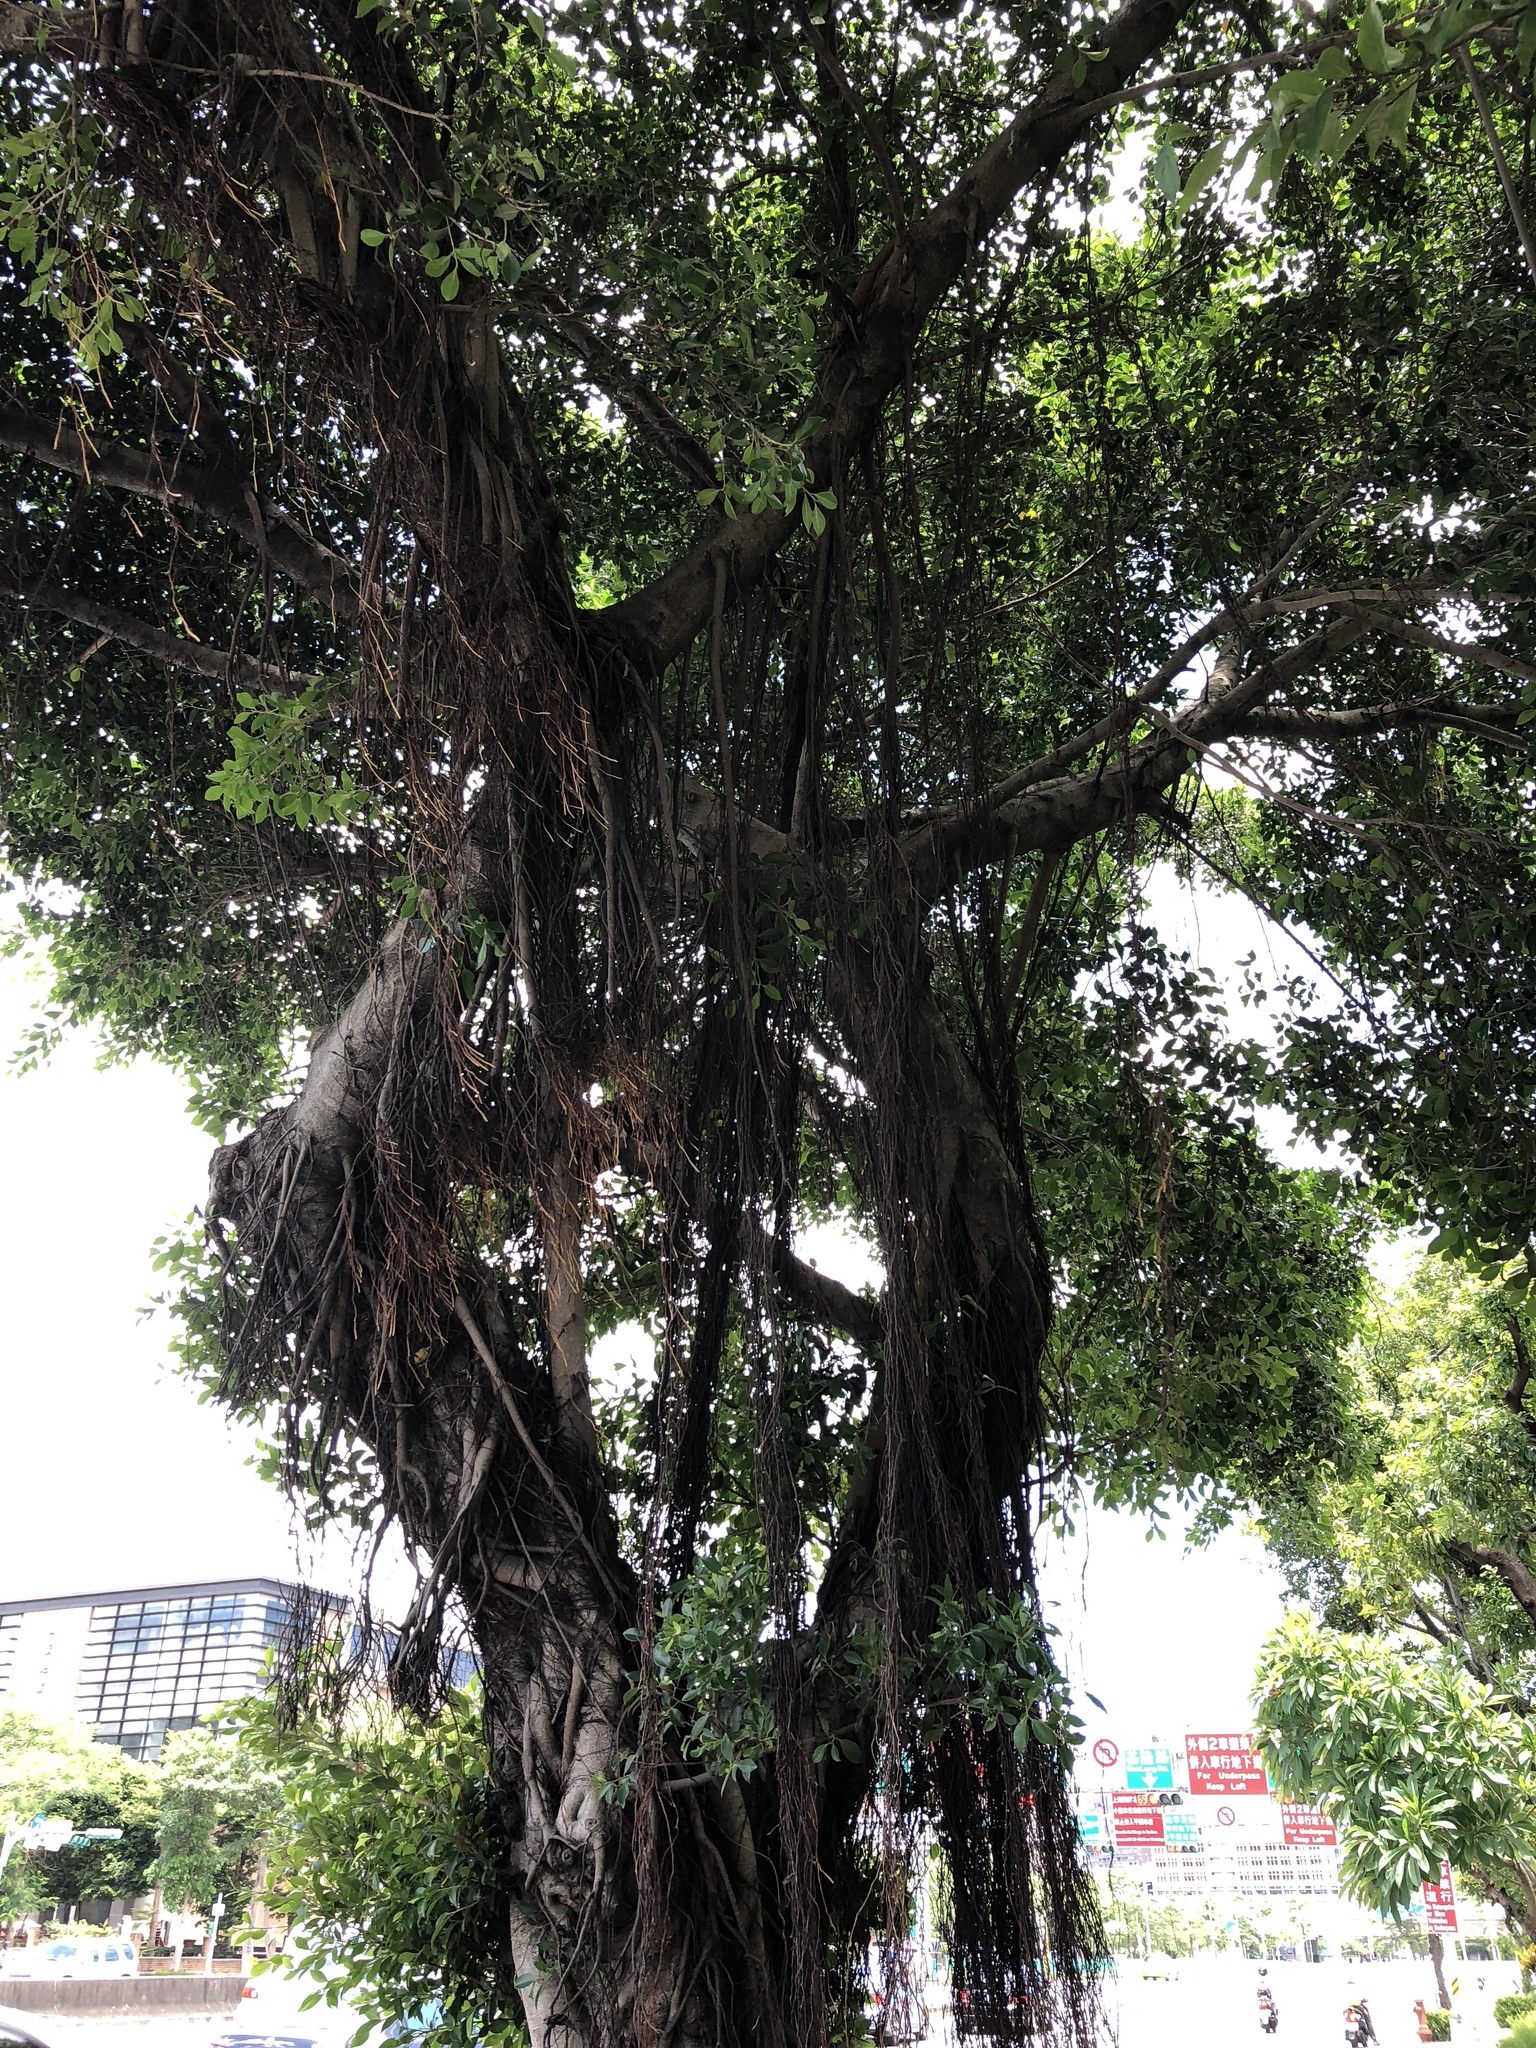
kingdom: Plantae
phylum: Tracheophyta
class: Magnoliopsida
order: Rosales
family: Moraceae
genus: Ficus
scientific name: Ficus microcarpa
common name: Chinese banyan
